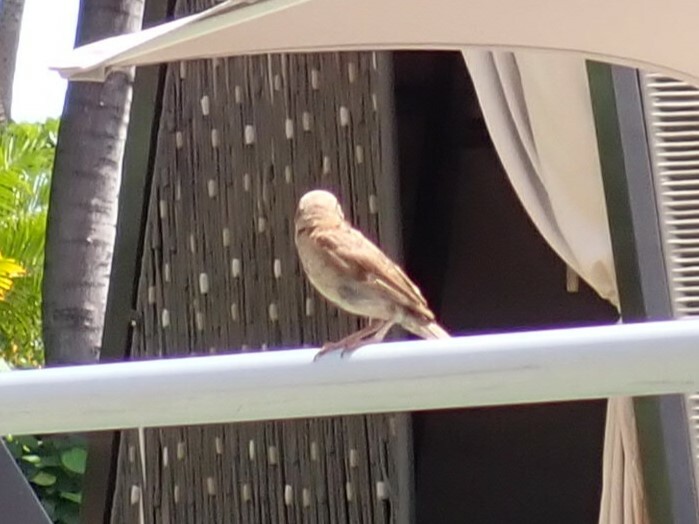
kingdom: Animalia
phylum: Chordata
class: Aves
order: Passeriformes
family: Passeridae
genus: Passer
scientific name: Passer domesticus
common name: House sparrow
